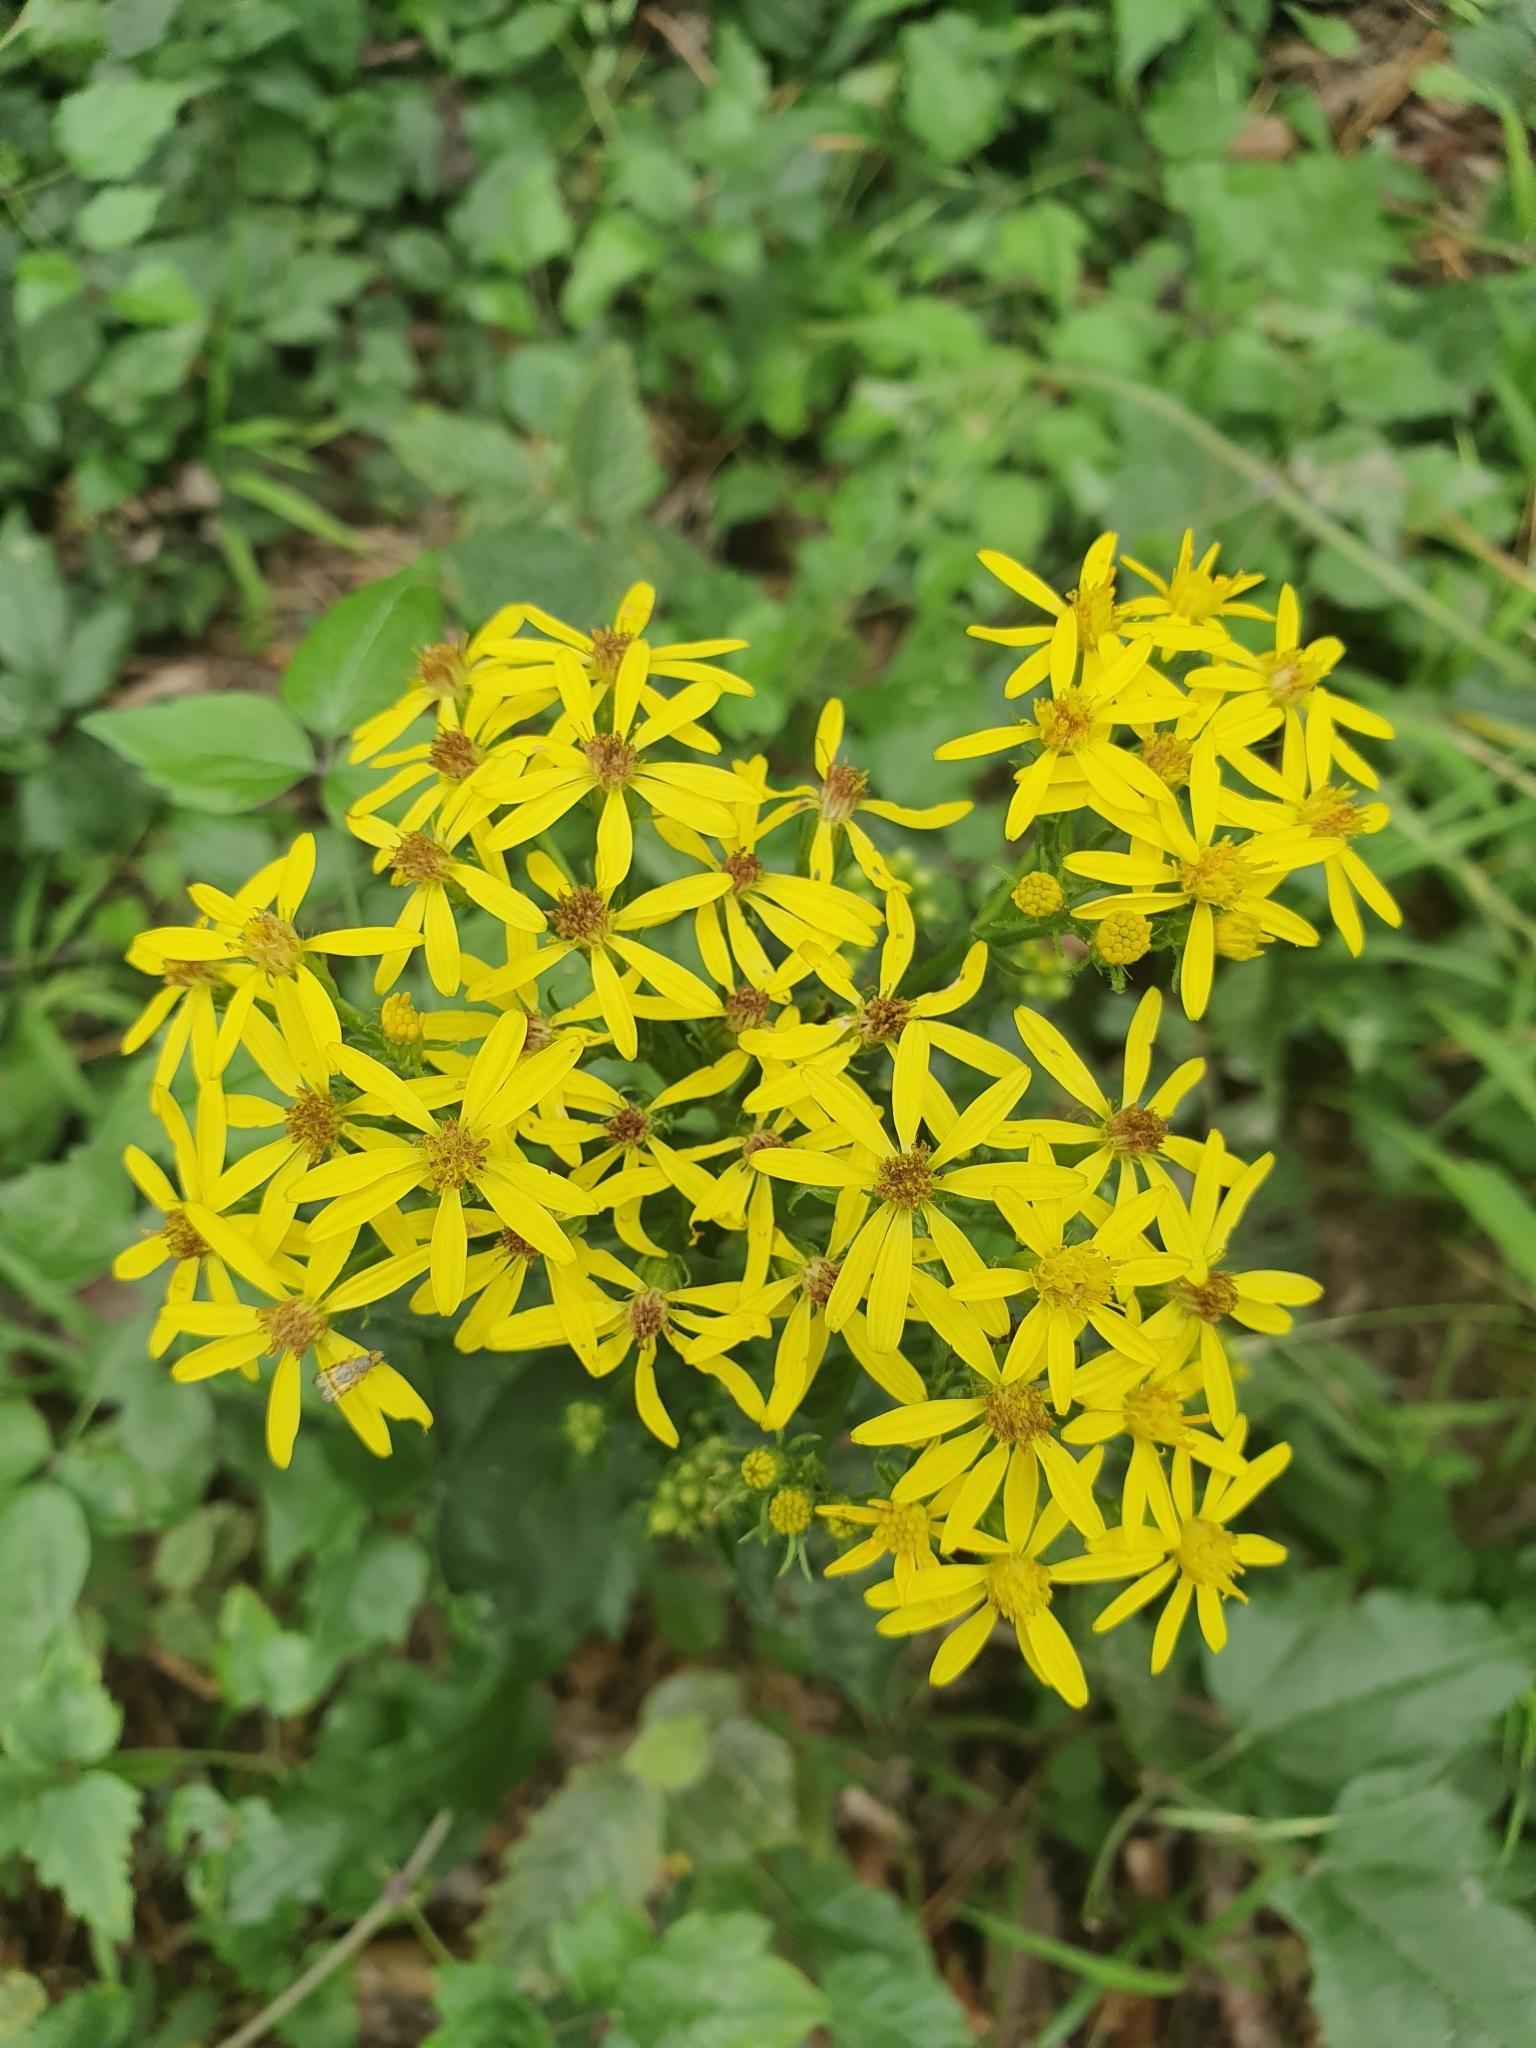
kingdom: Plantae
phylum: Tracheophyta
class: Magnoliopsida
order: Asterales
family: Asteraceae
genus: Senecio
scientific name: Senecio ovatus
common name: Wood ragwort
